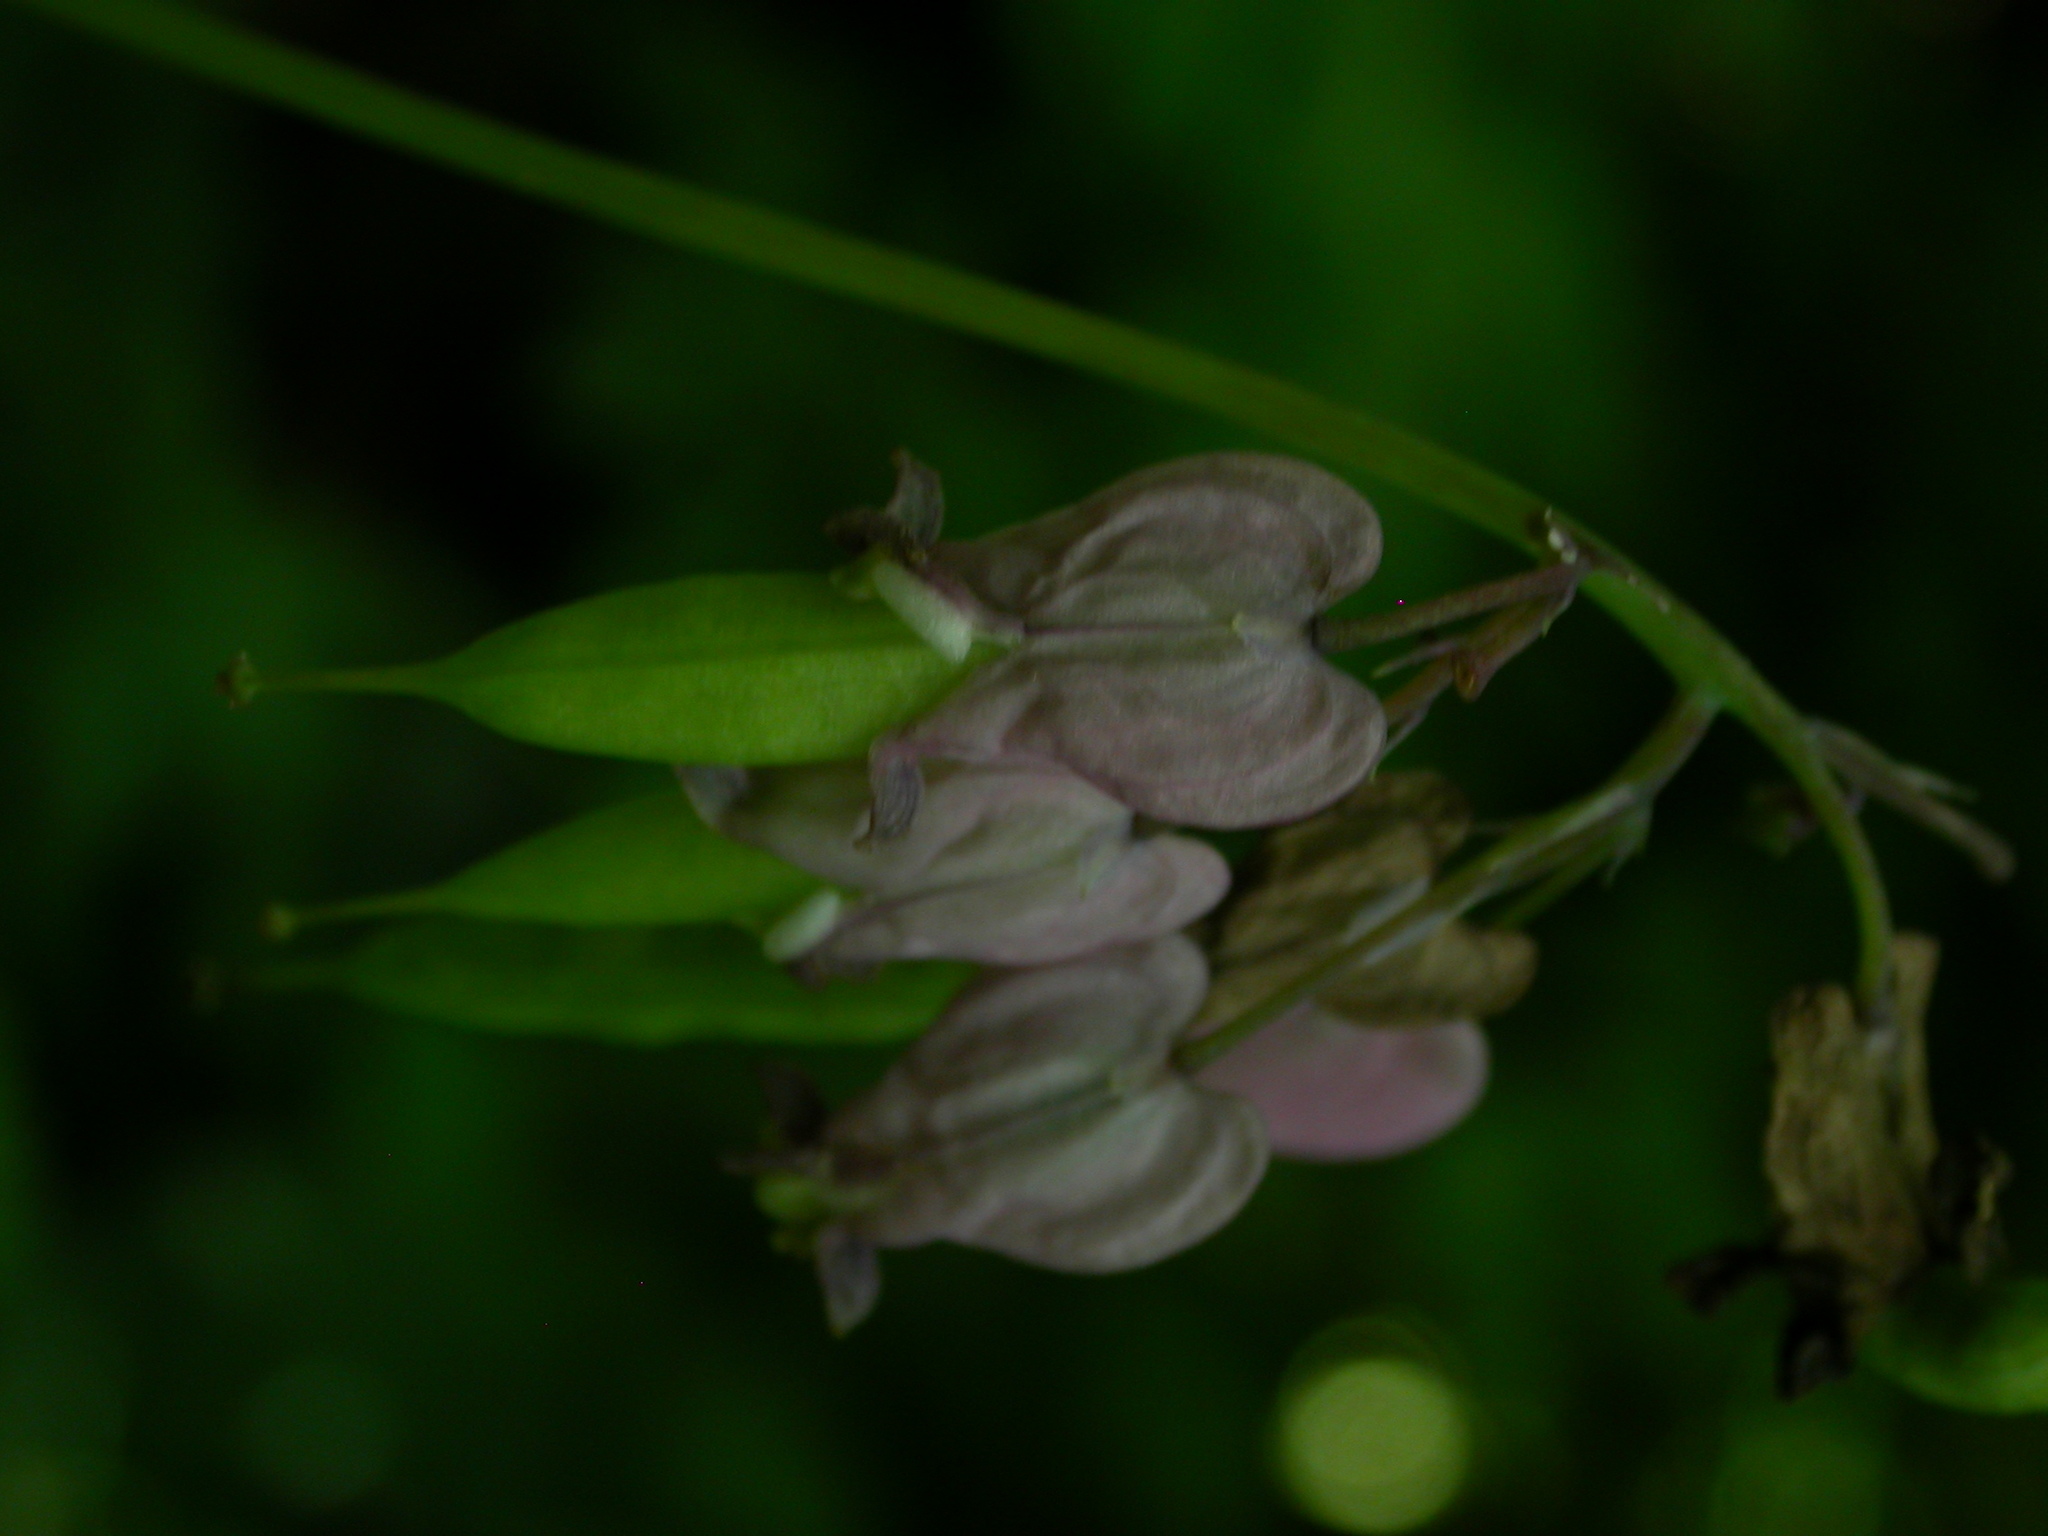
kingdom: Plantae
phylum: Tracheophyta
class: Magnoliopsida
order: Ranunculales
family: Papaveraceae
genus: Dicentra
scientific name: Dicentra formosa
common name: Bleeding-heart
